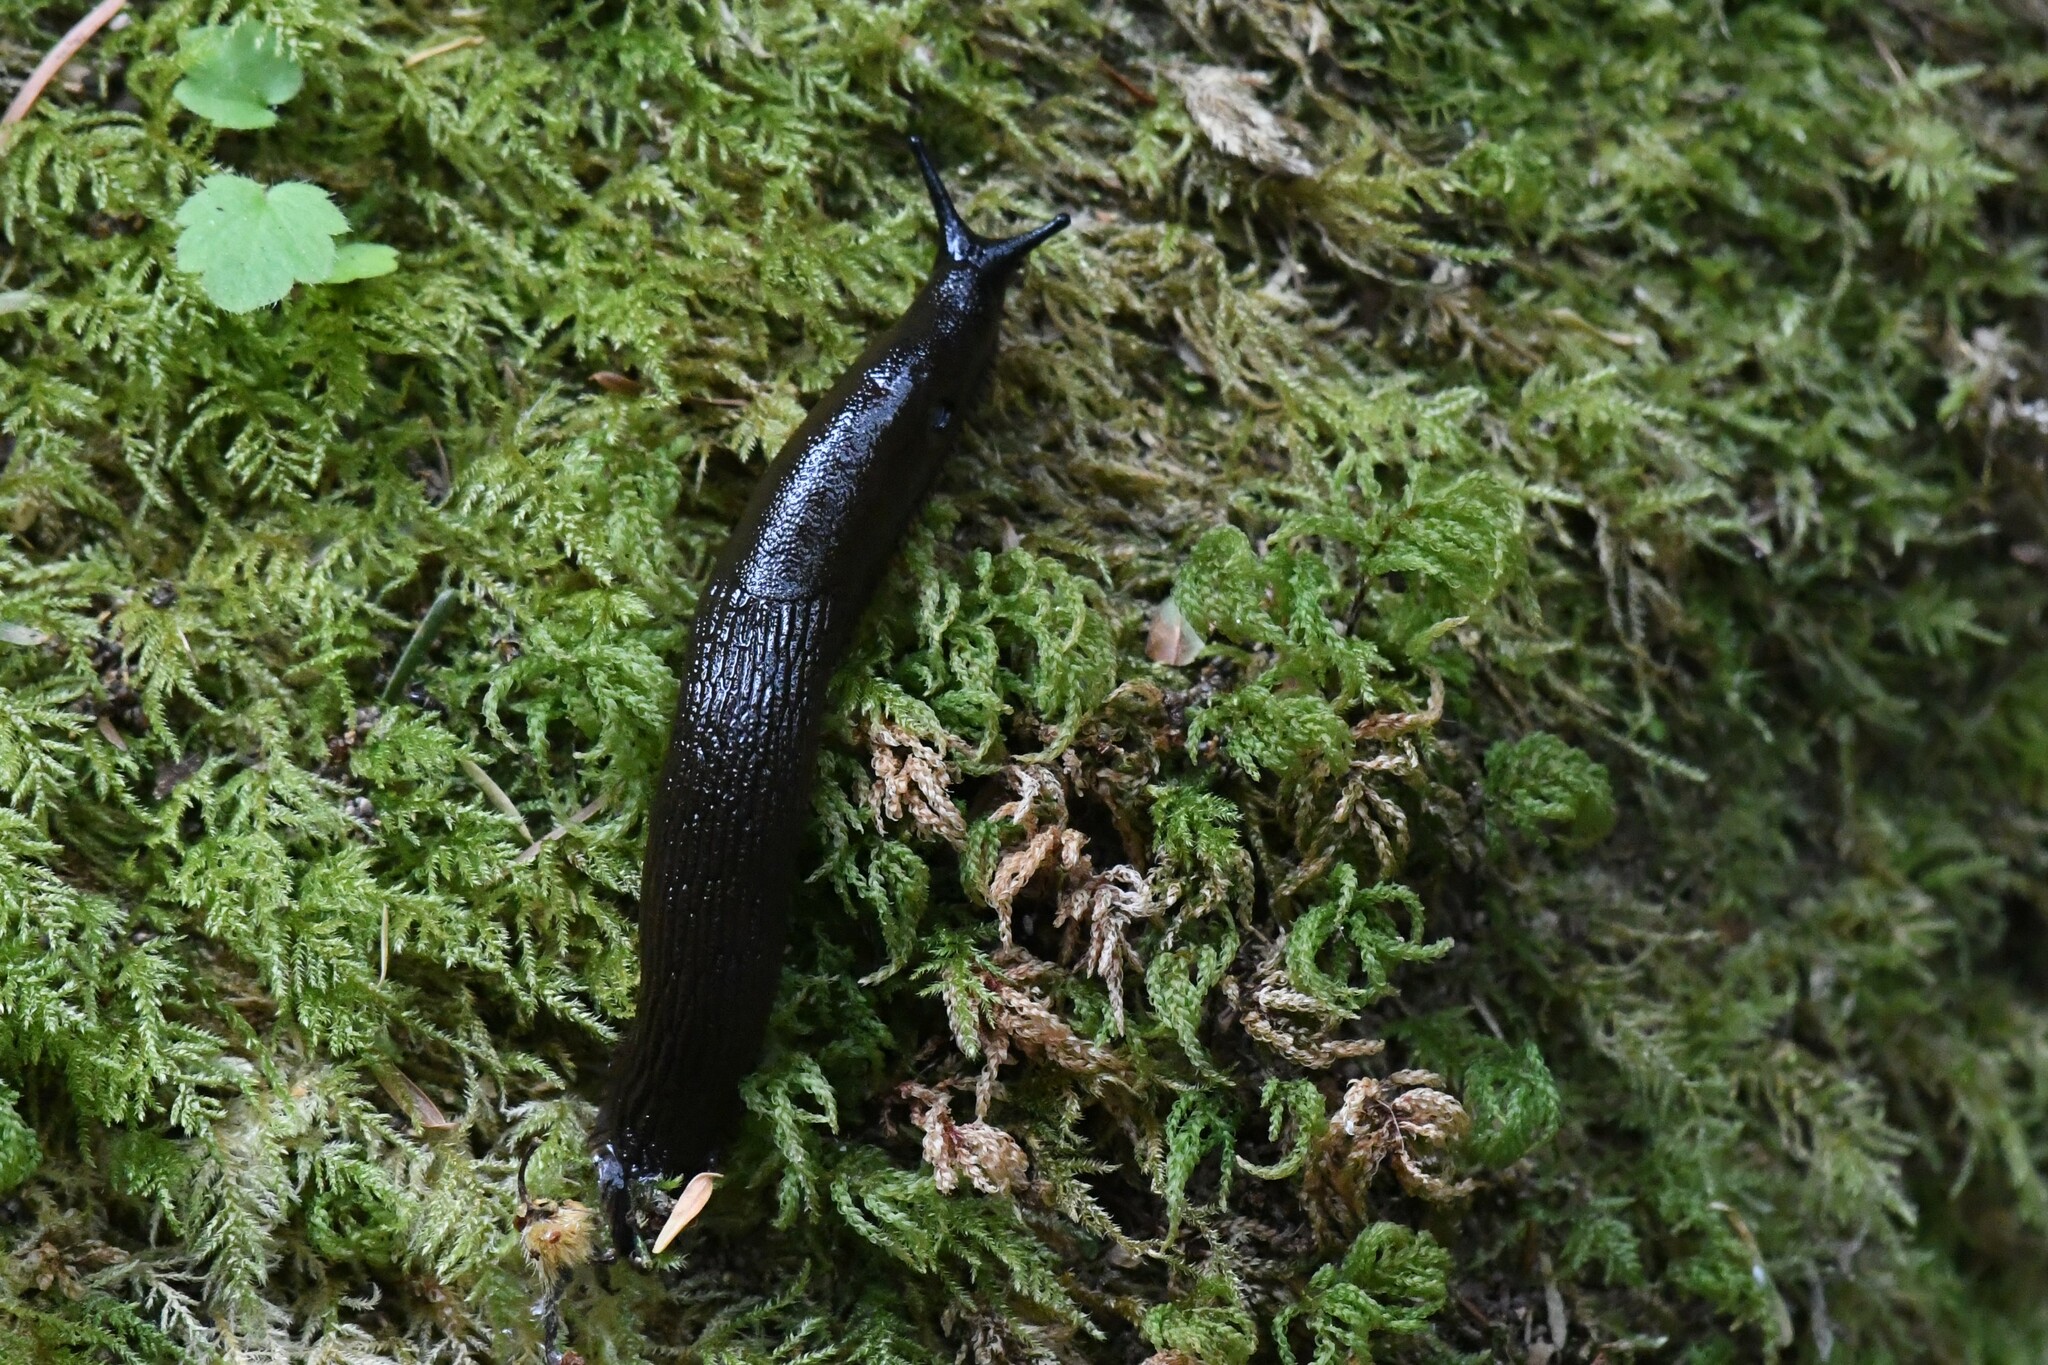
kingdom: Animalia
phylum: Mollusca
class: Gastropoda
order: Stylommatophora
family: Arionidae
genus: Arion
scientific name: Arion
